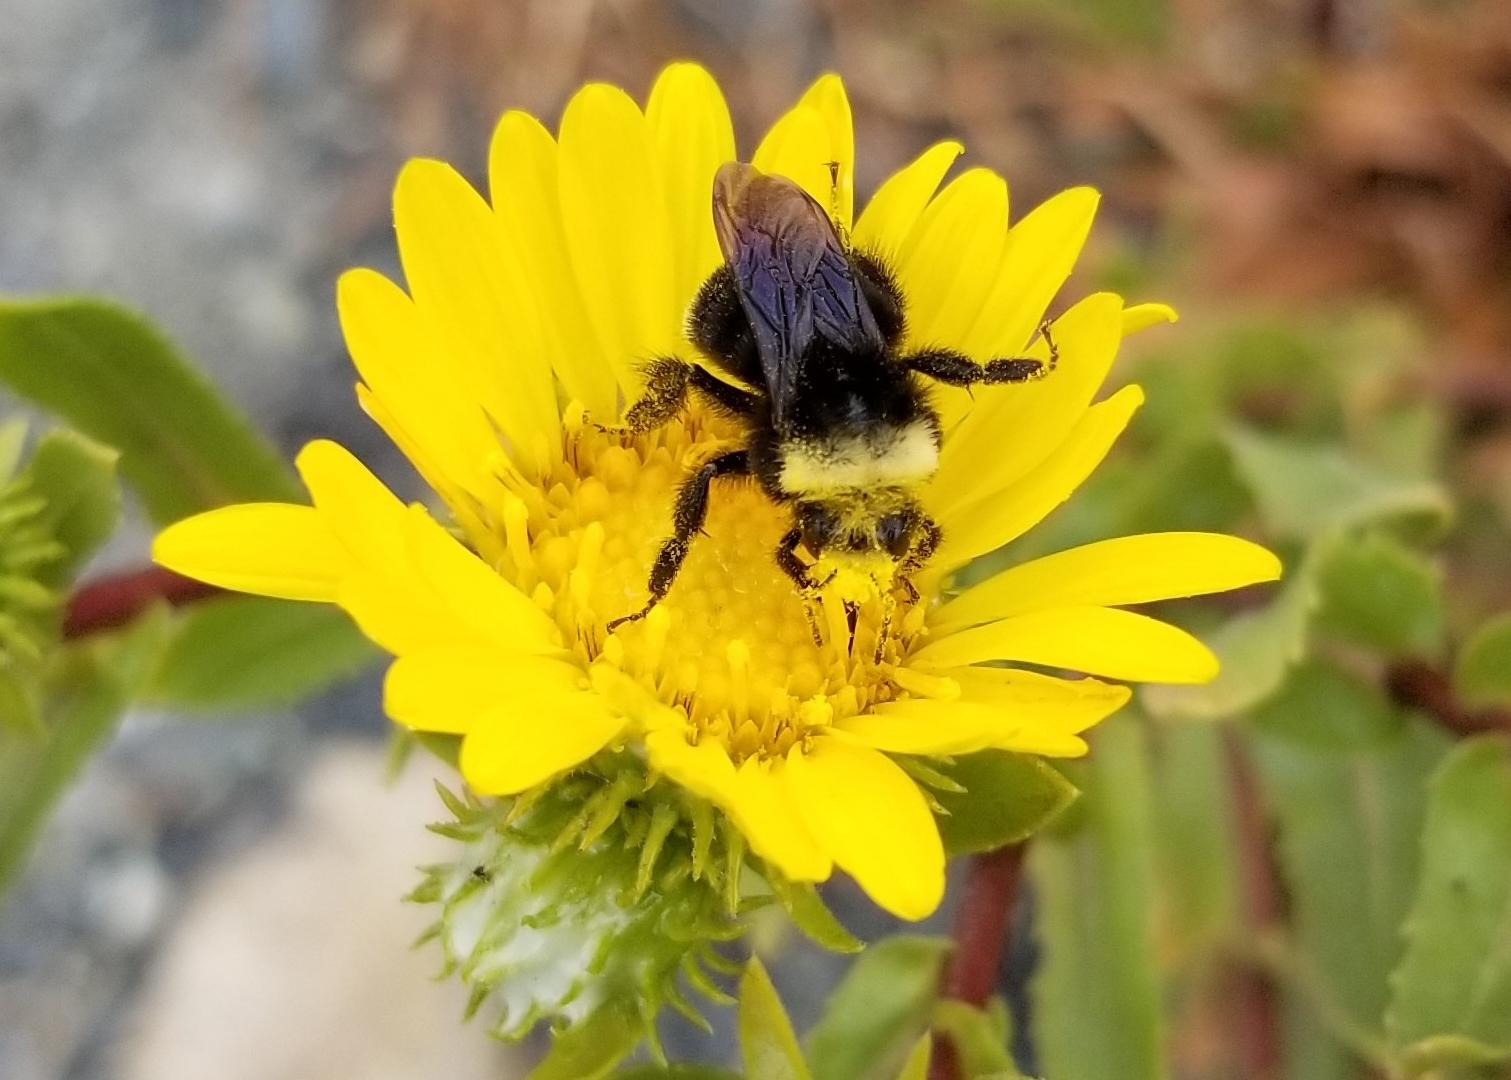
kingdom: Animalia
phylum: Arthropoda
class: Insecta
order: Hymenoptera
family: Apidae
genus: Bombus
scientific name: Bombus vosnesenskii
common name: Vosnesensky bumble bee
